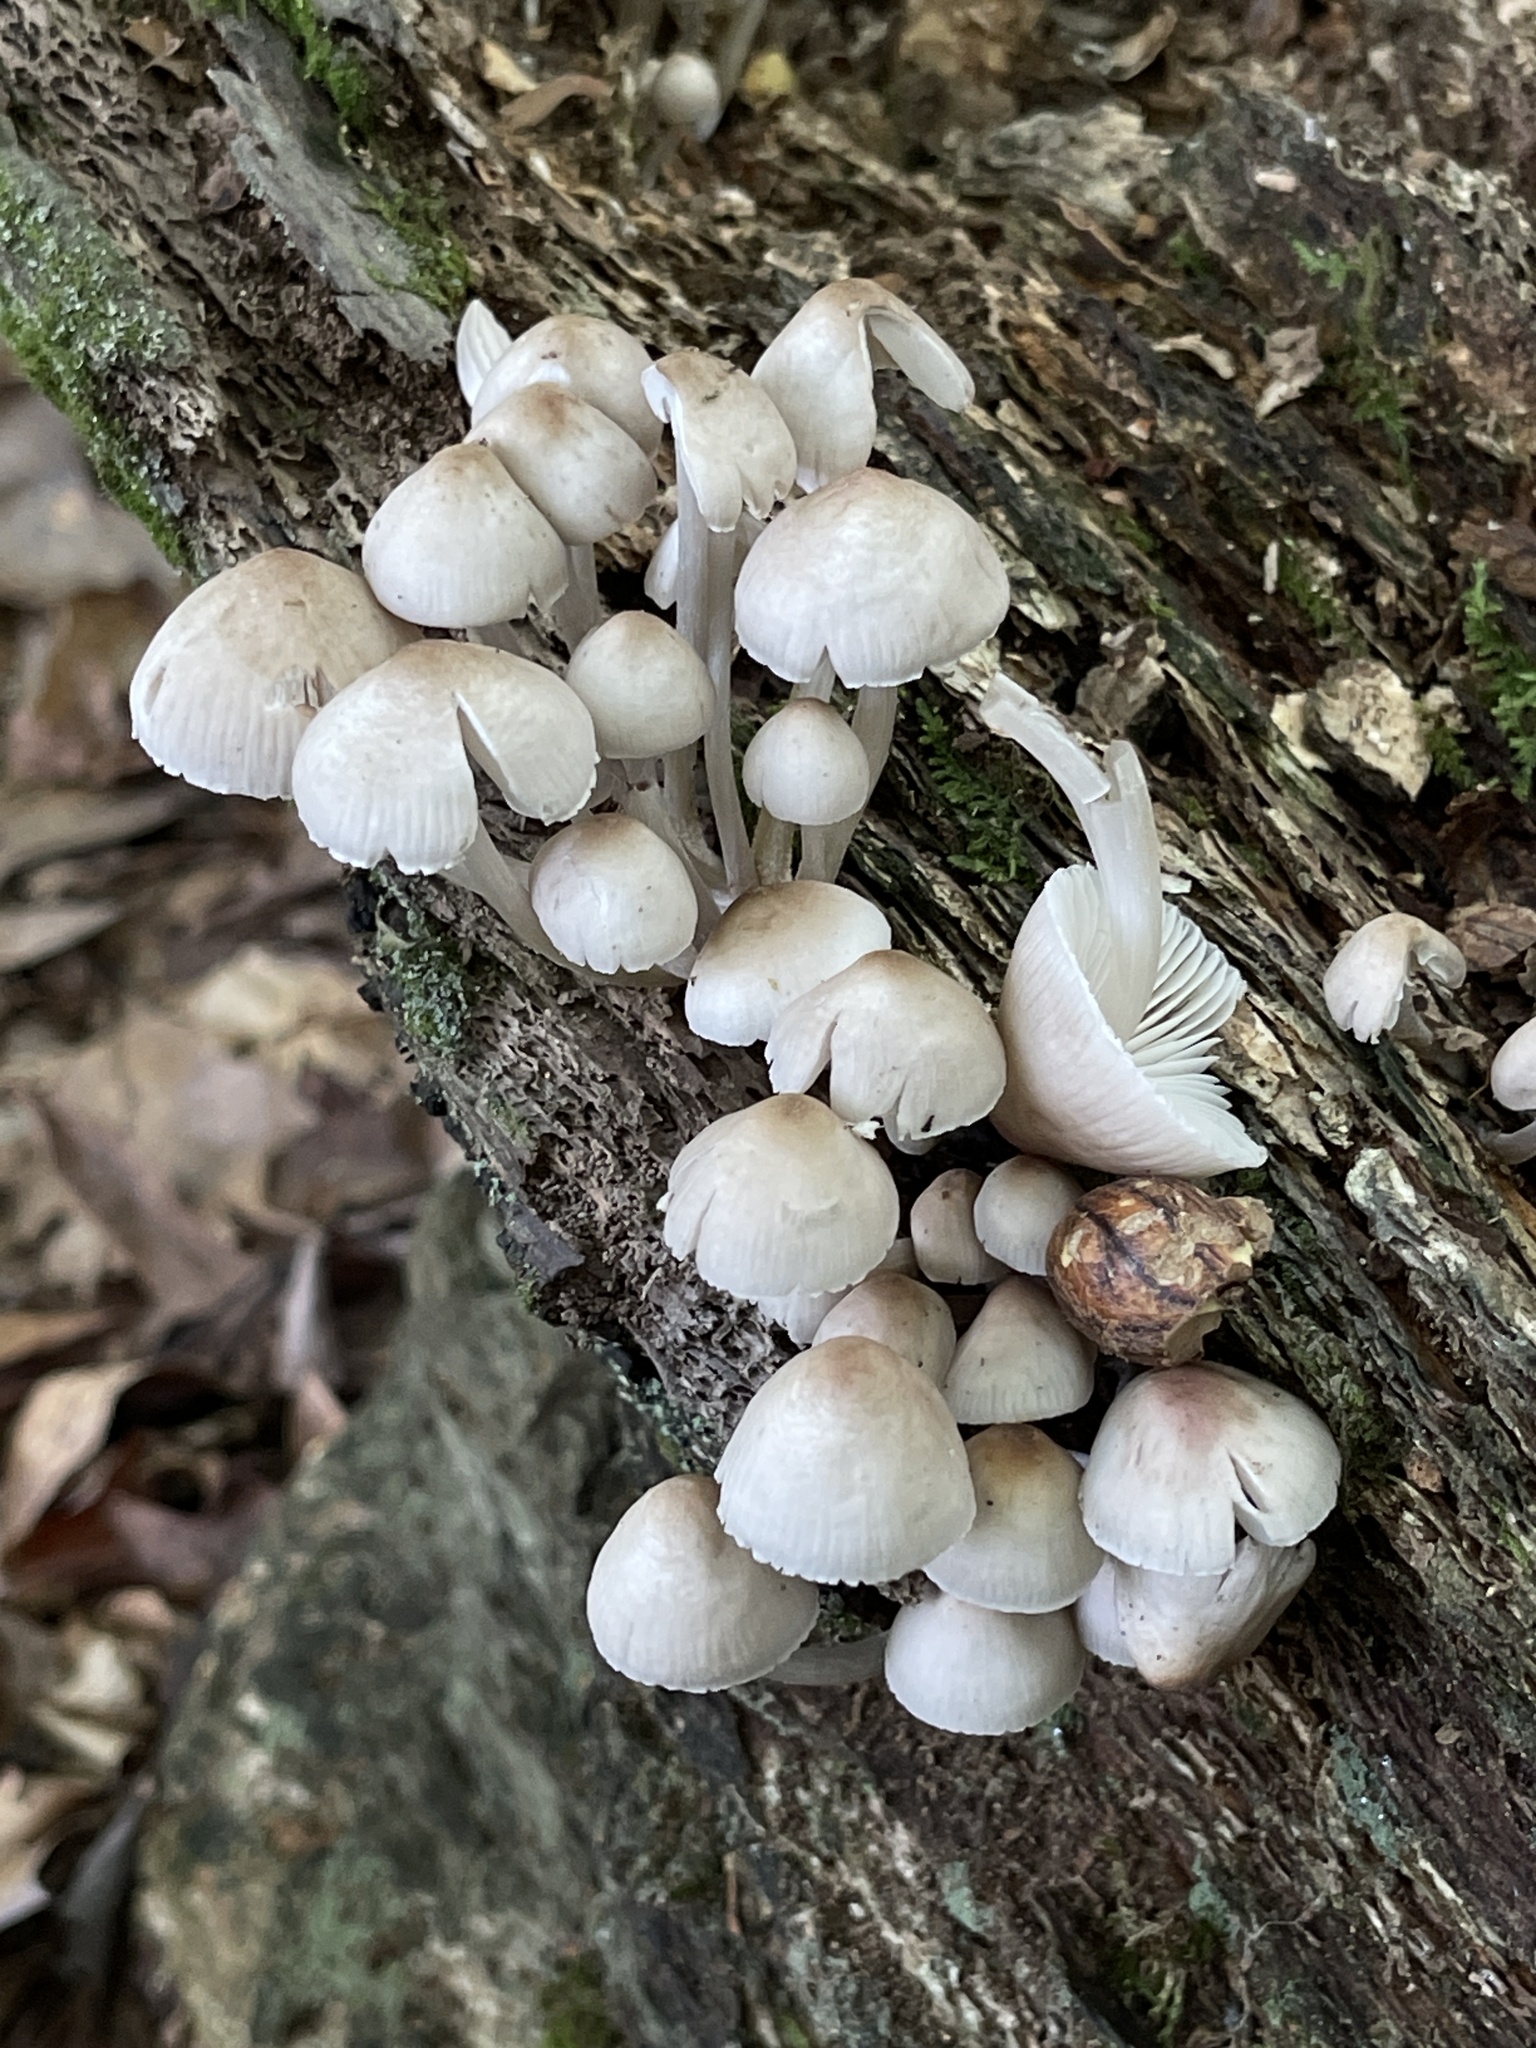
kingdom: Fungi
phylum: Basidiomycota
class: Agaricomycetes
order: Agaricales
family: Mycenaceae
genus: Mycena
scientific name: Mycena inclinata
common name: Clustered bonnet
